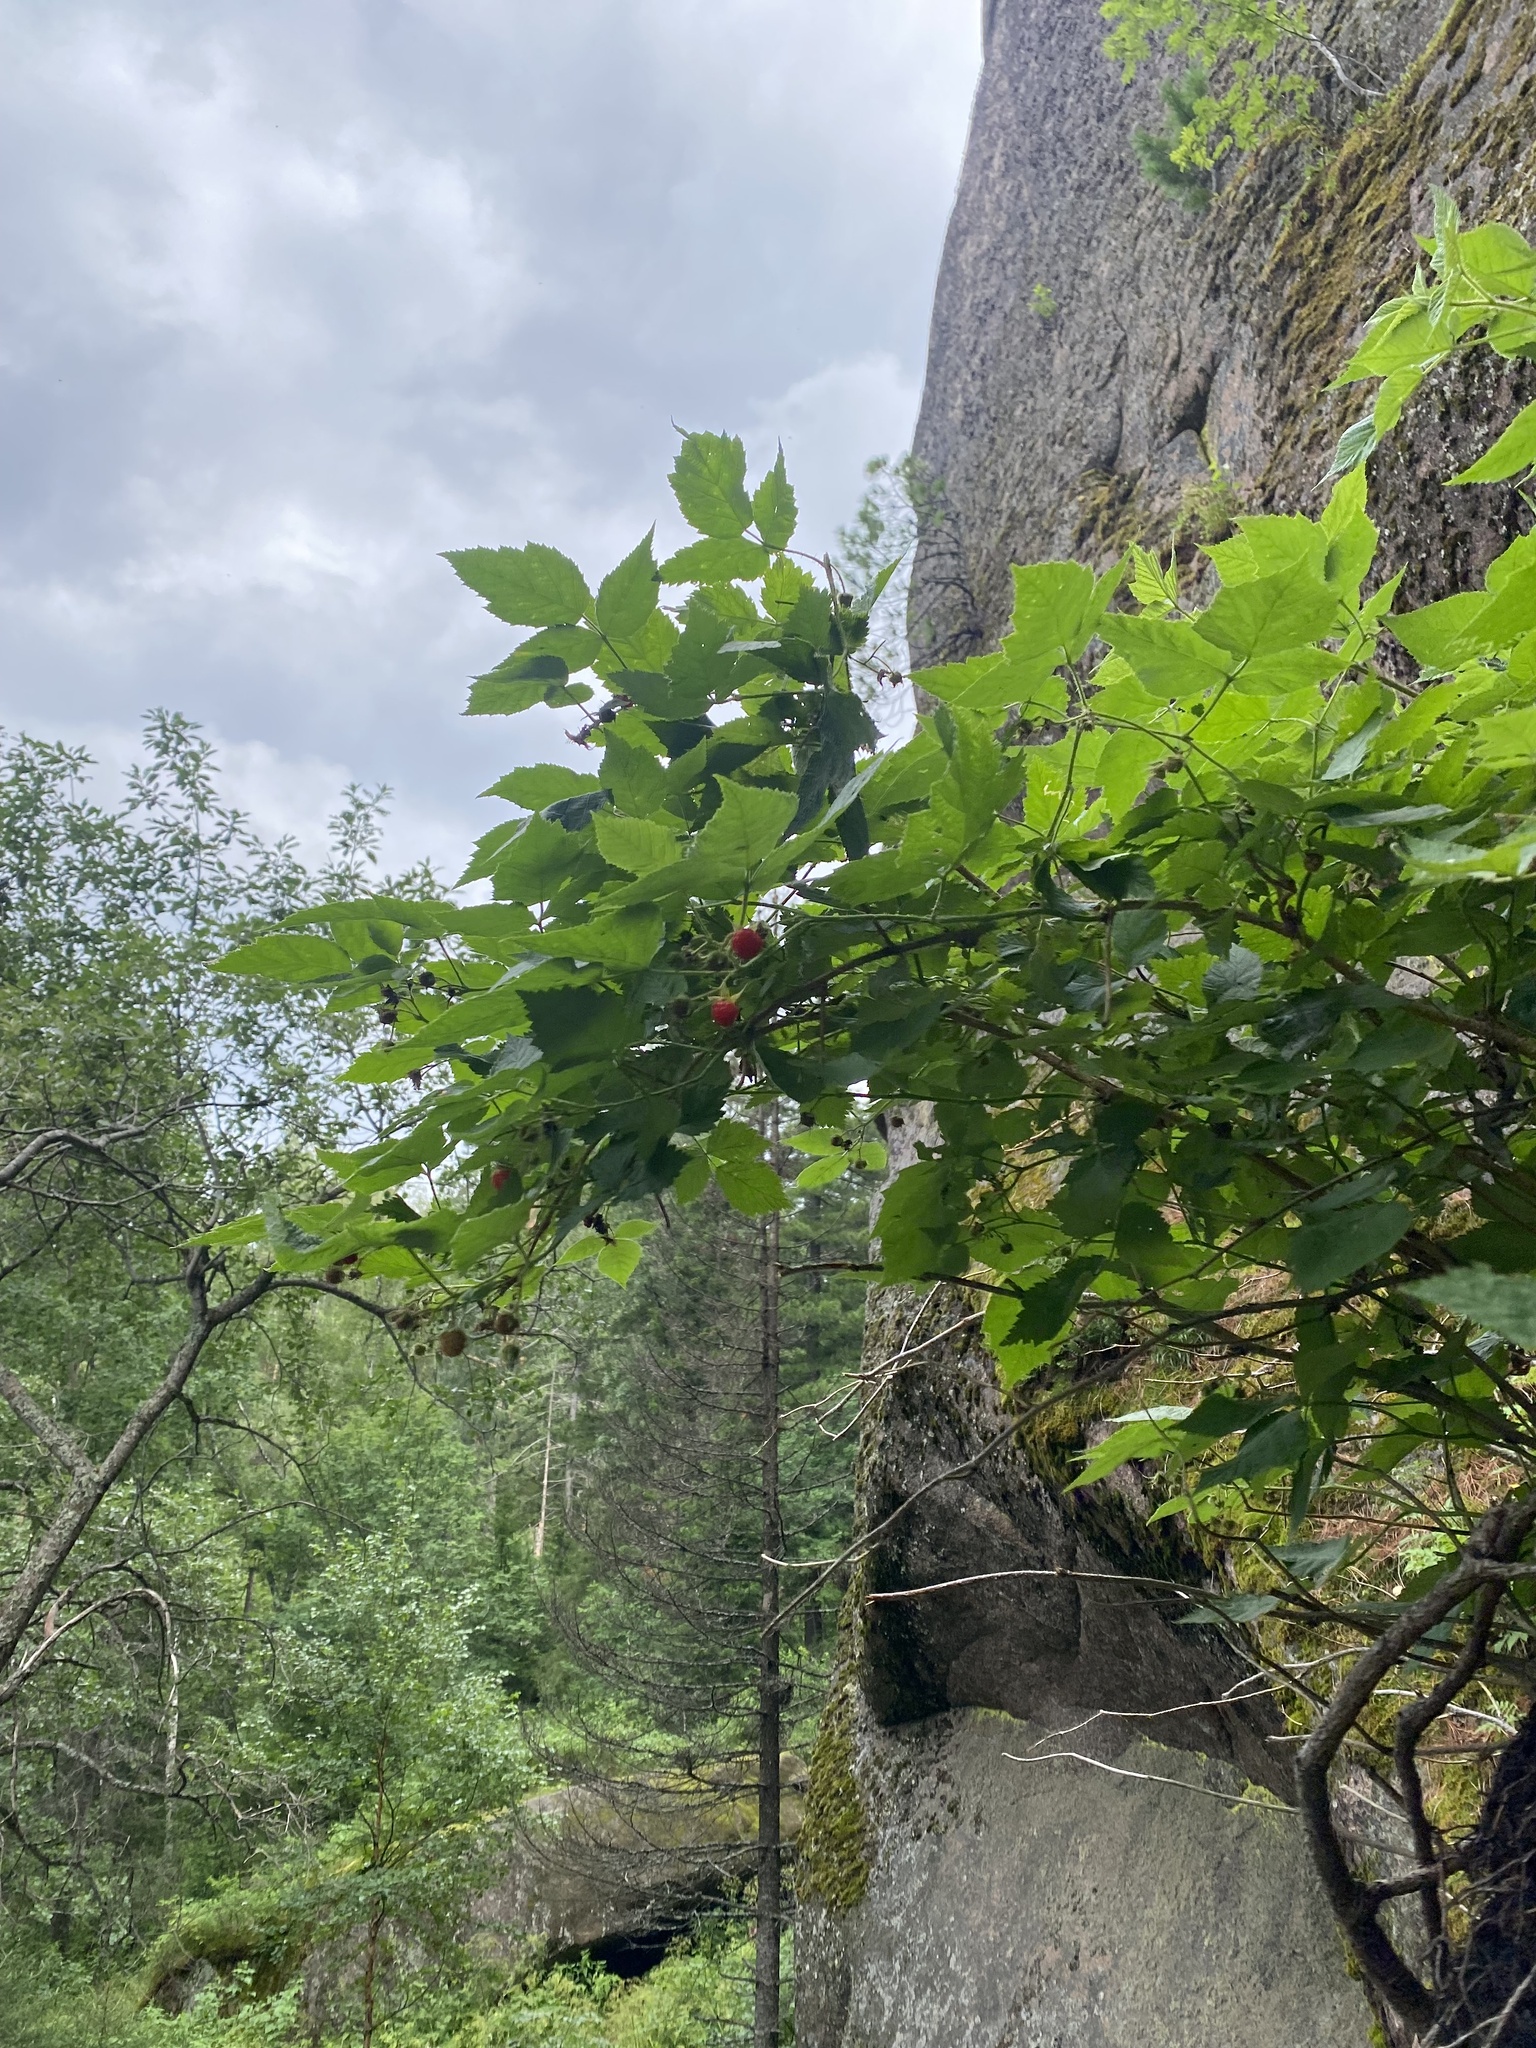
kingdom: Plantae
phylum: Tracheophyta
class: Magnoliopsida
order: Rosales
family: Rosaceae
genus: Rubus
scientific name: Rubus sachalinensis
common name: Red raspberry
